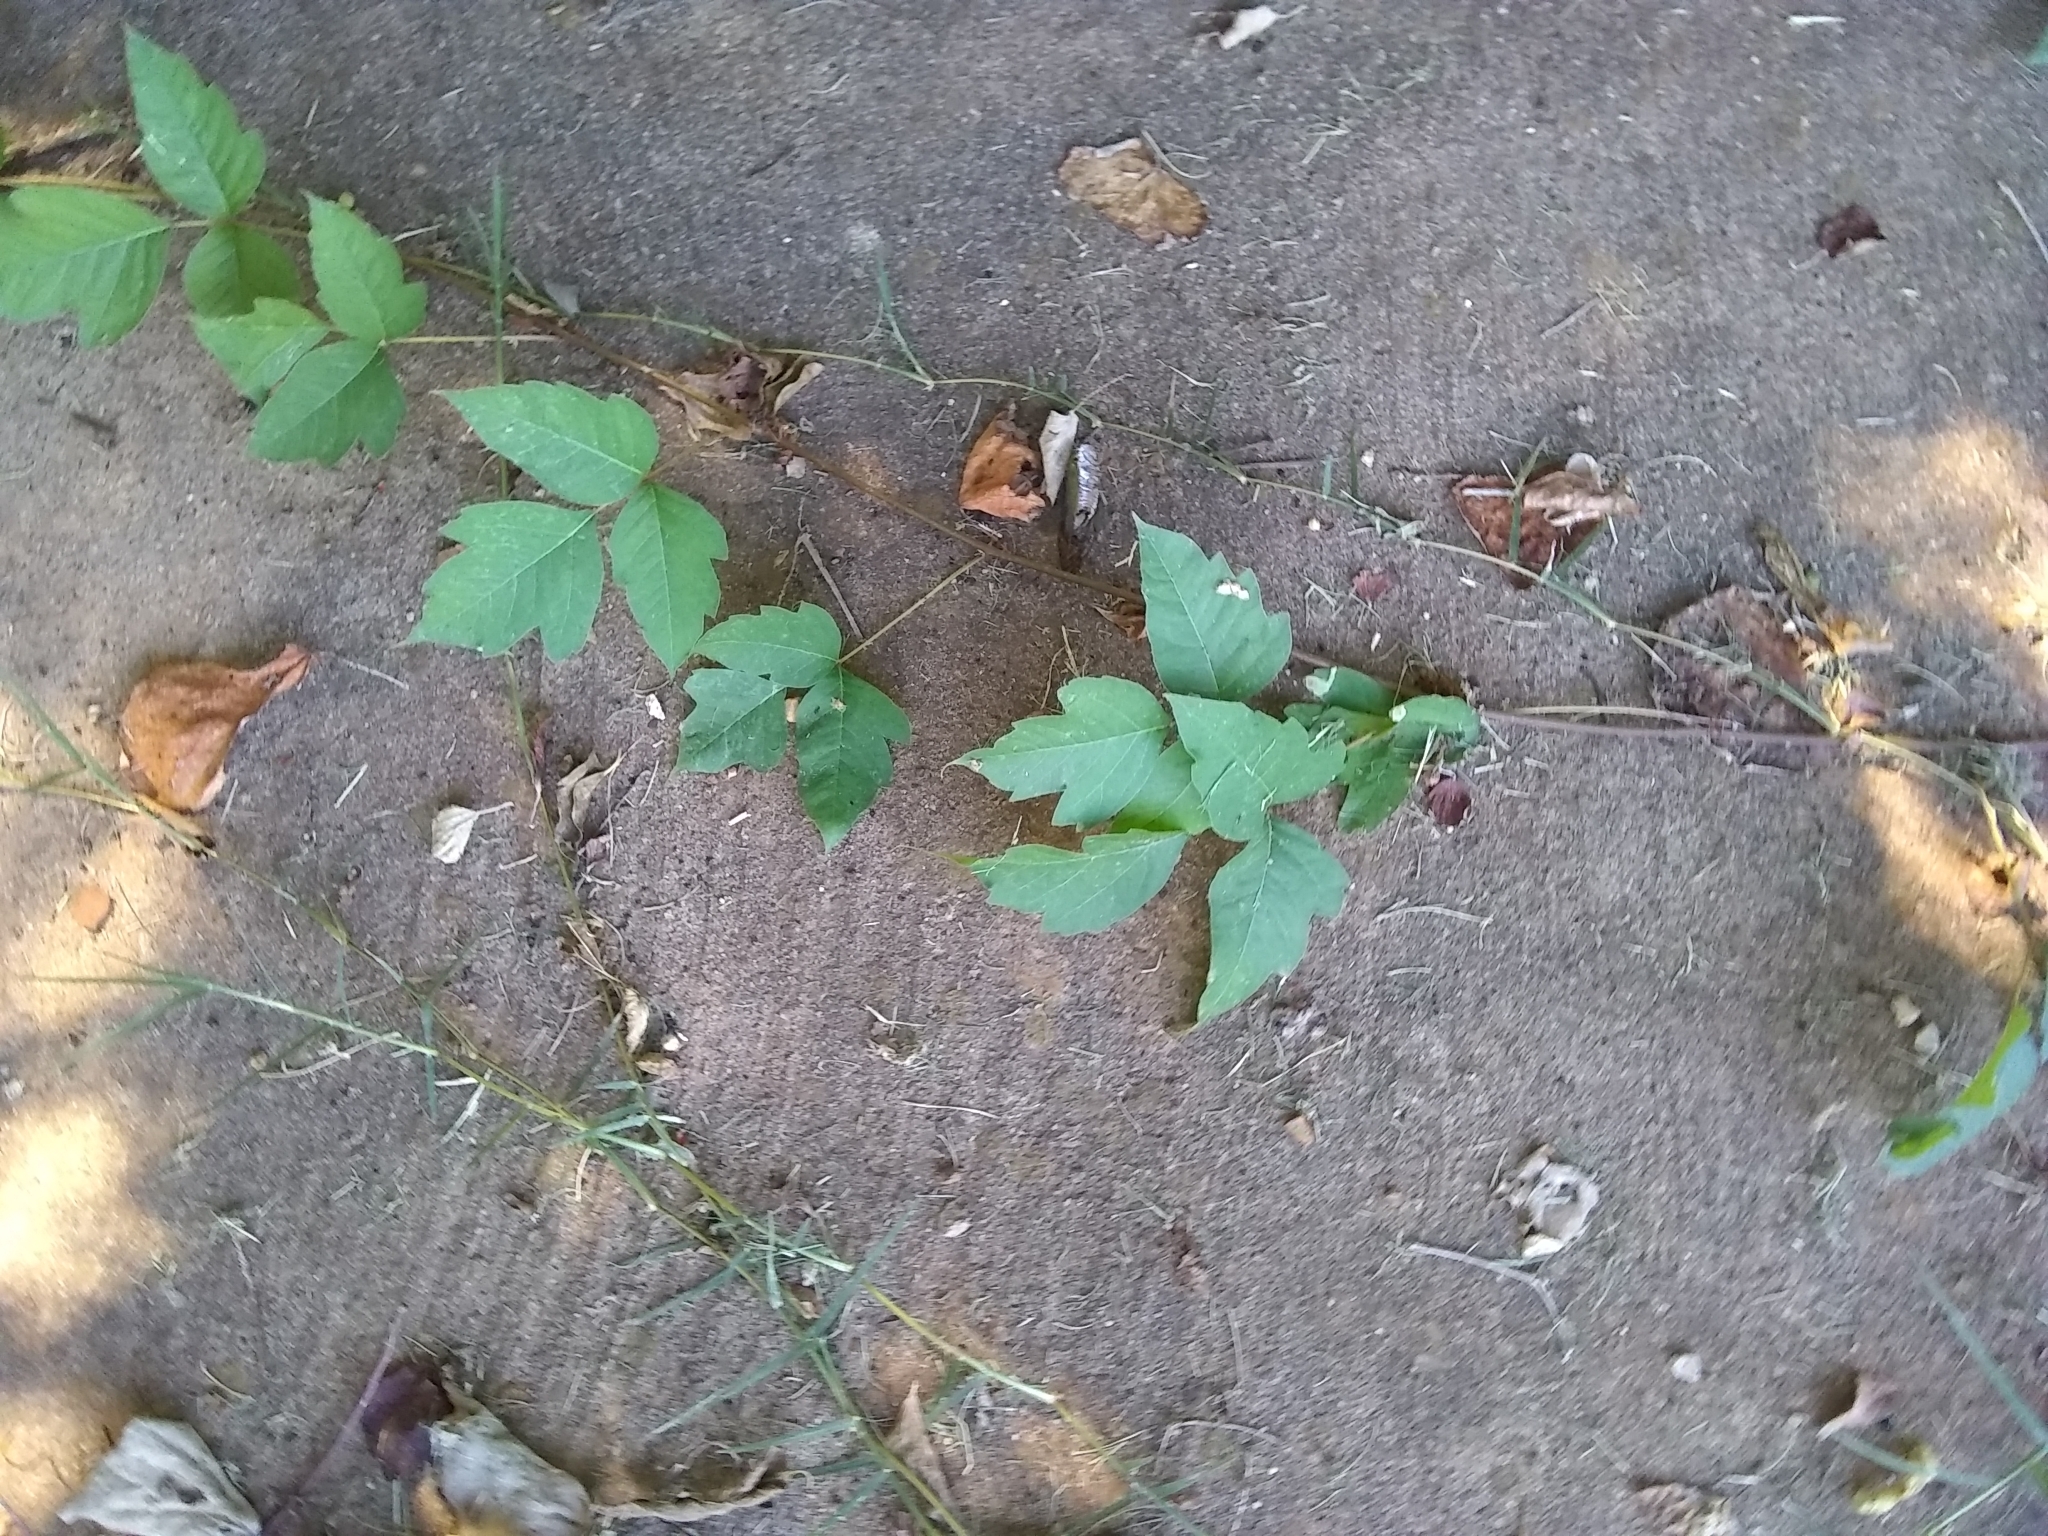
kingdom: Plantae
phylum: Tracheophyta
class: Magnoliopsida
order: Sapindales
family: Anacardiaceae
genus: Toxicodendron
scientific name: Toxicodendron radicans
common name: Poison ivy
